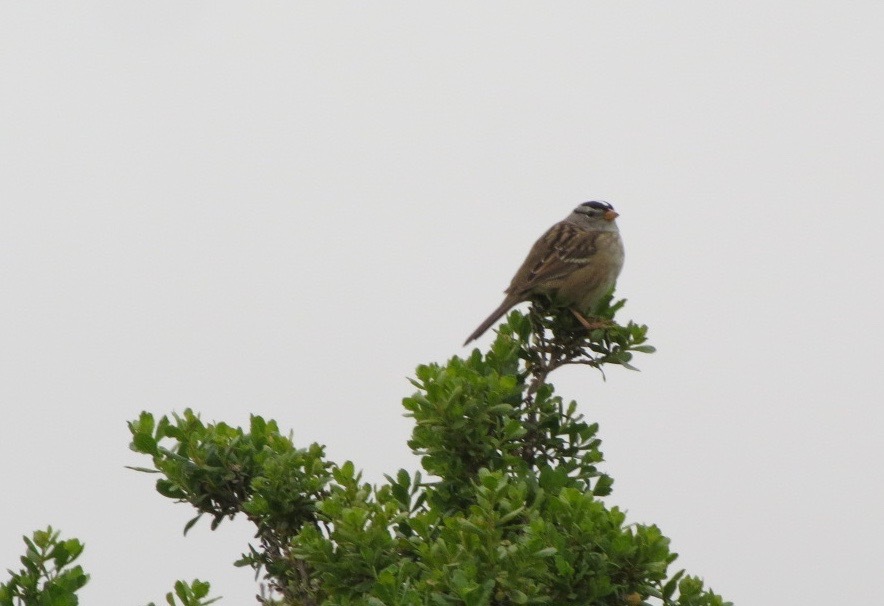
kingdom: Animalia
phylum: Chordata
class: Aves
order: Passeriformes
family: Passerellidae
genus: Zonotrichia
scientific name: Zonotrichia leucophrys
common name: White-crowned sparrow
